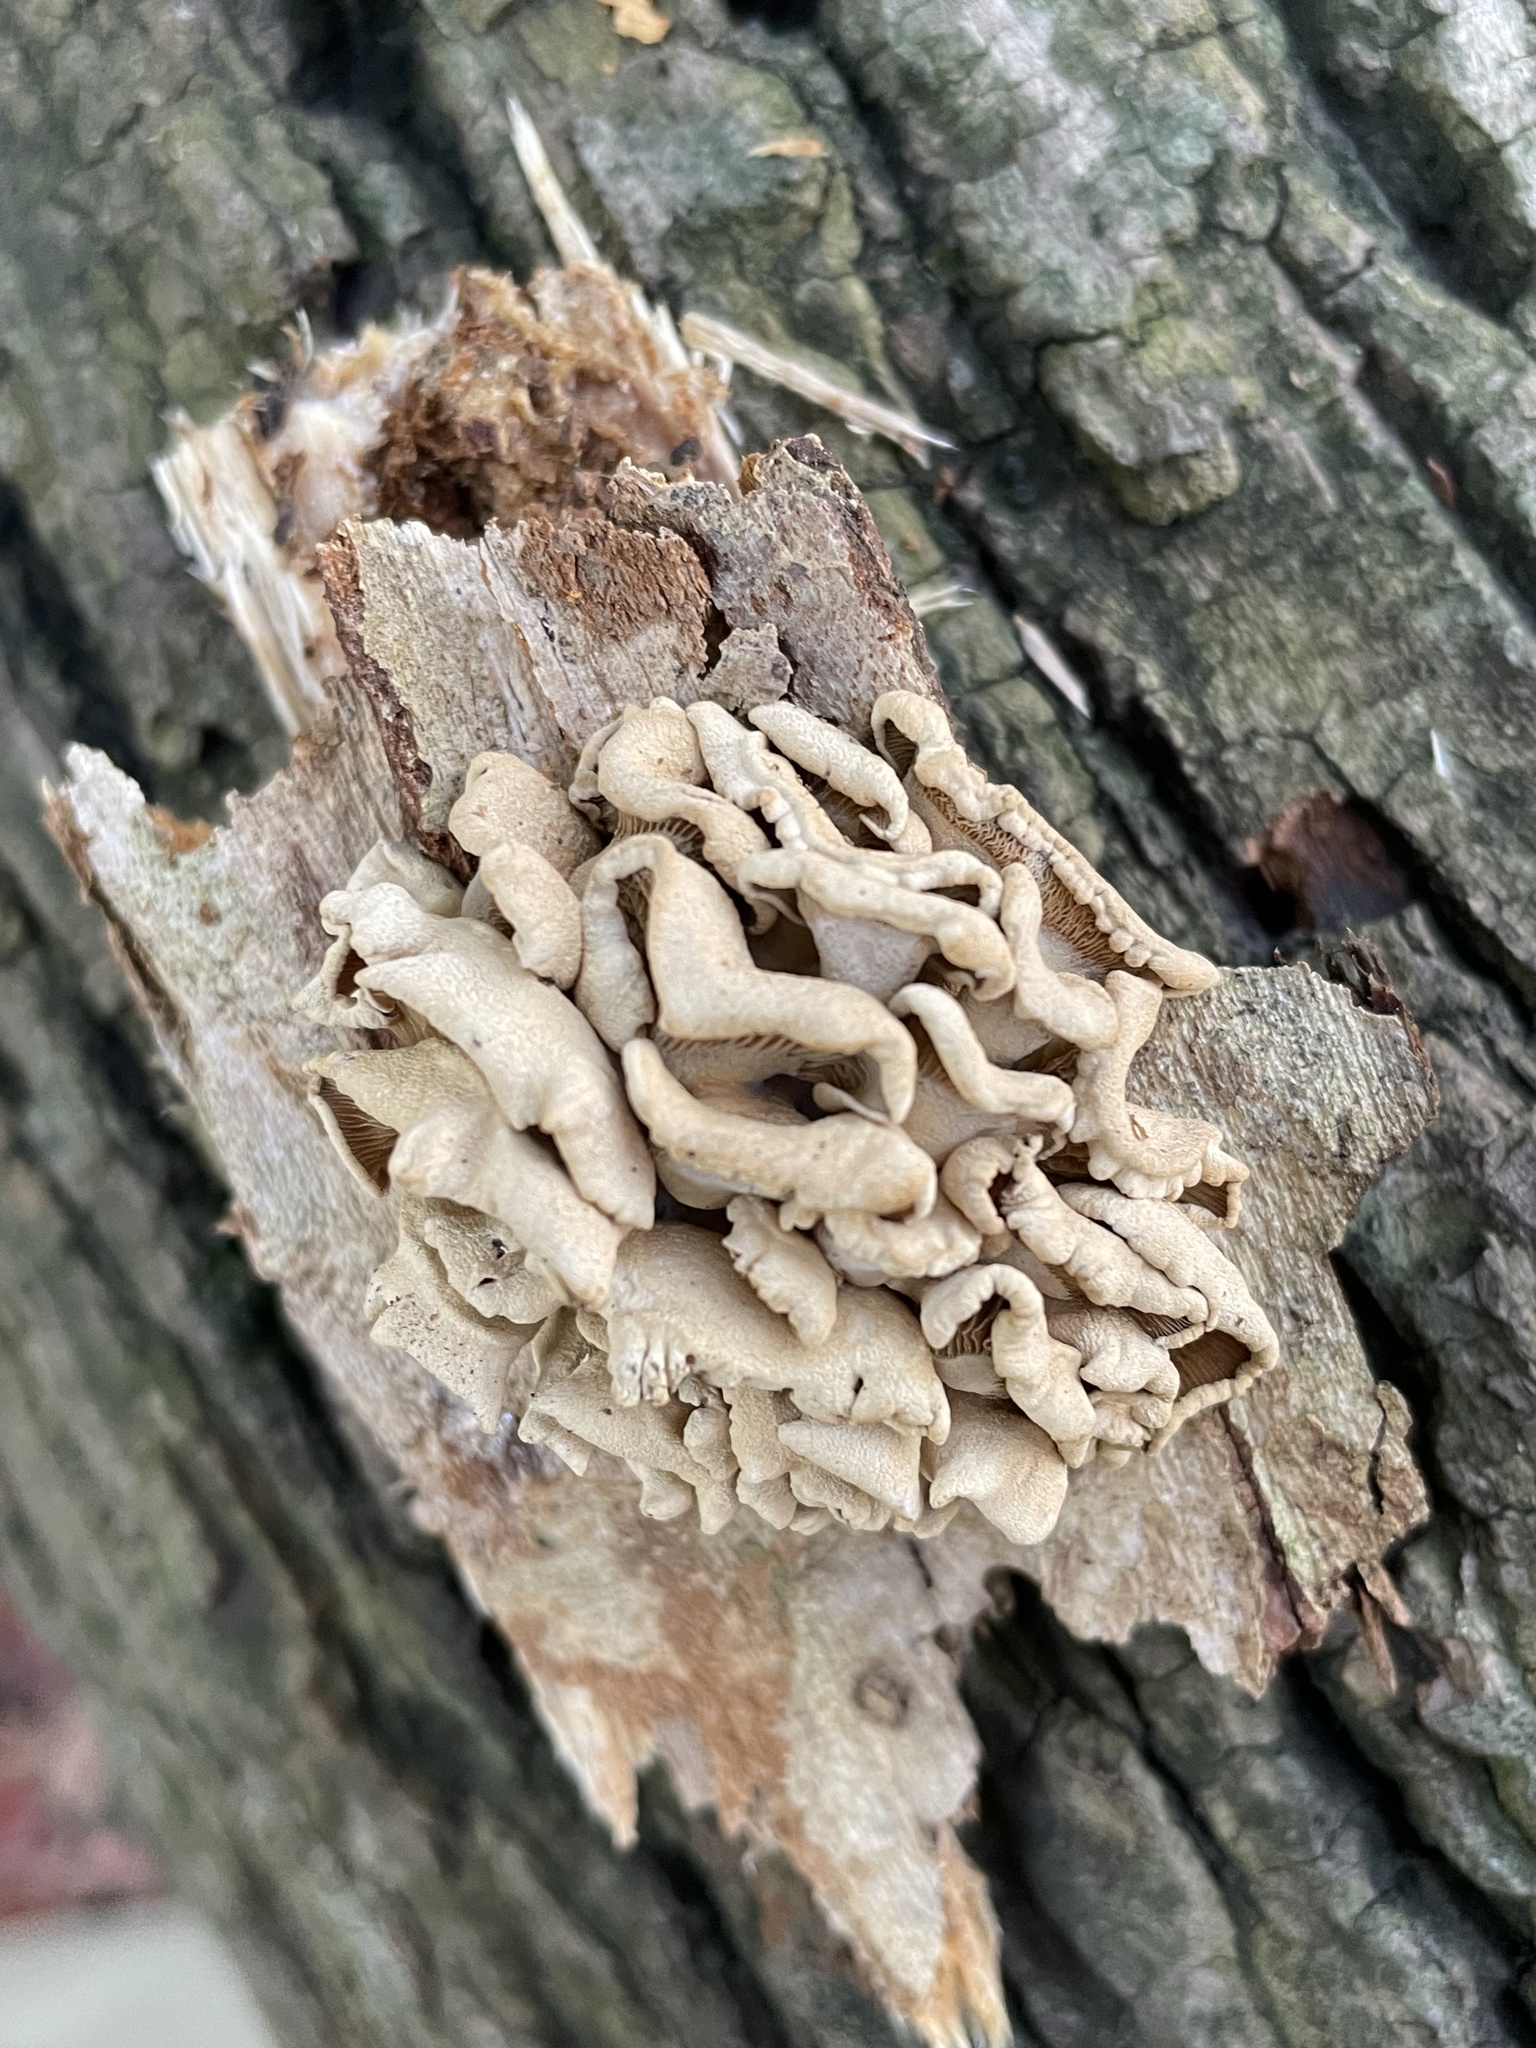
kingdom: Fungi
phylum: Basidiomycota
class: Agaricomycetes
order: Agaricales
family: Mycenaceae
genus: Panellus
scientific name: Panellus stipticus
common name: Bitter oysterling
